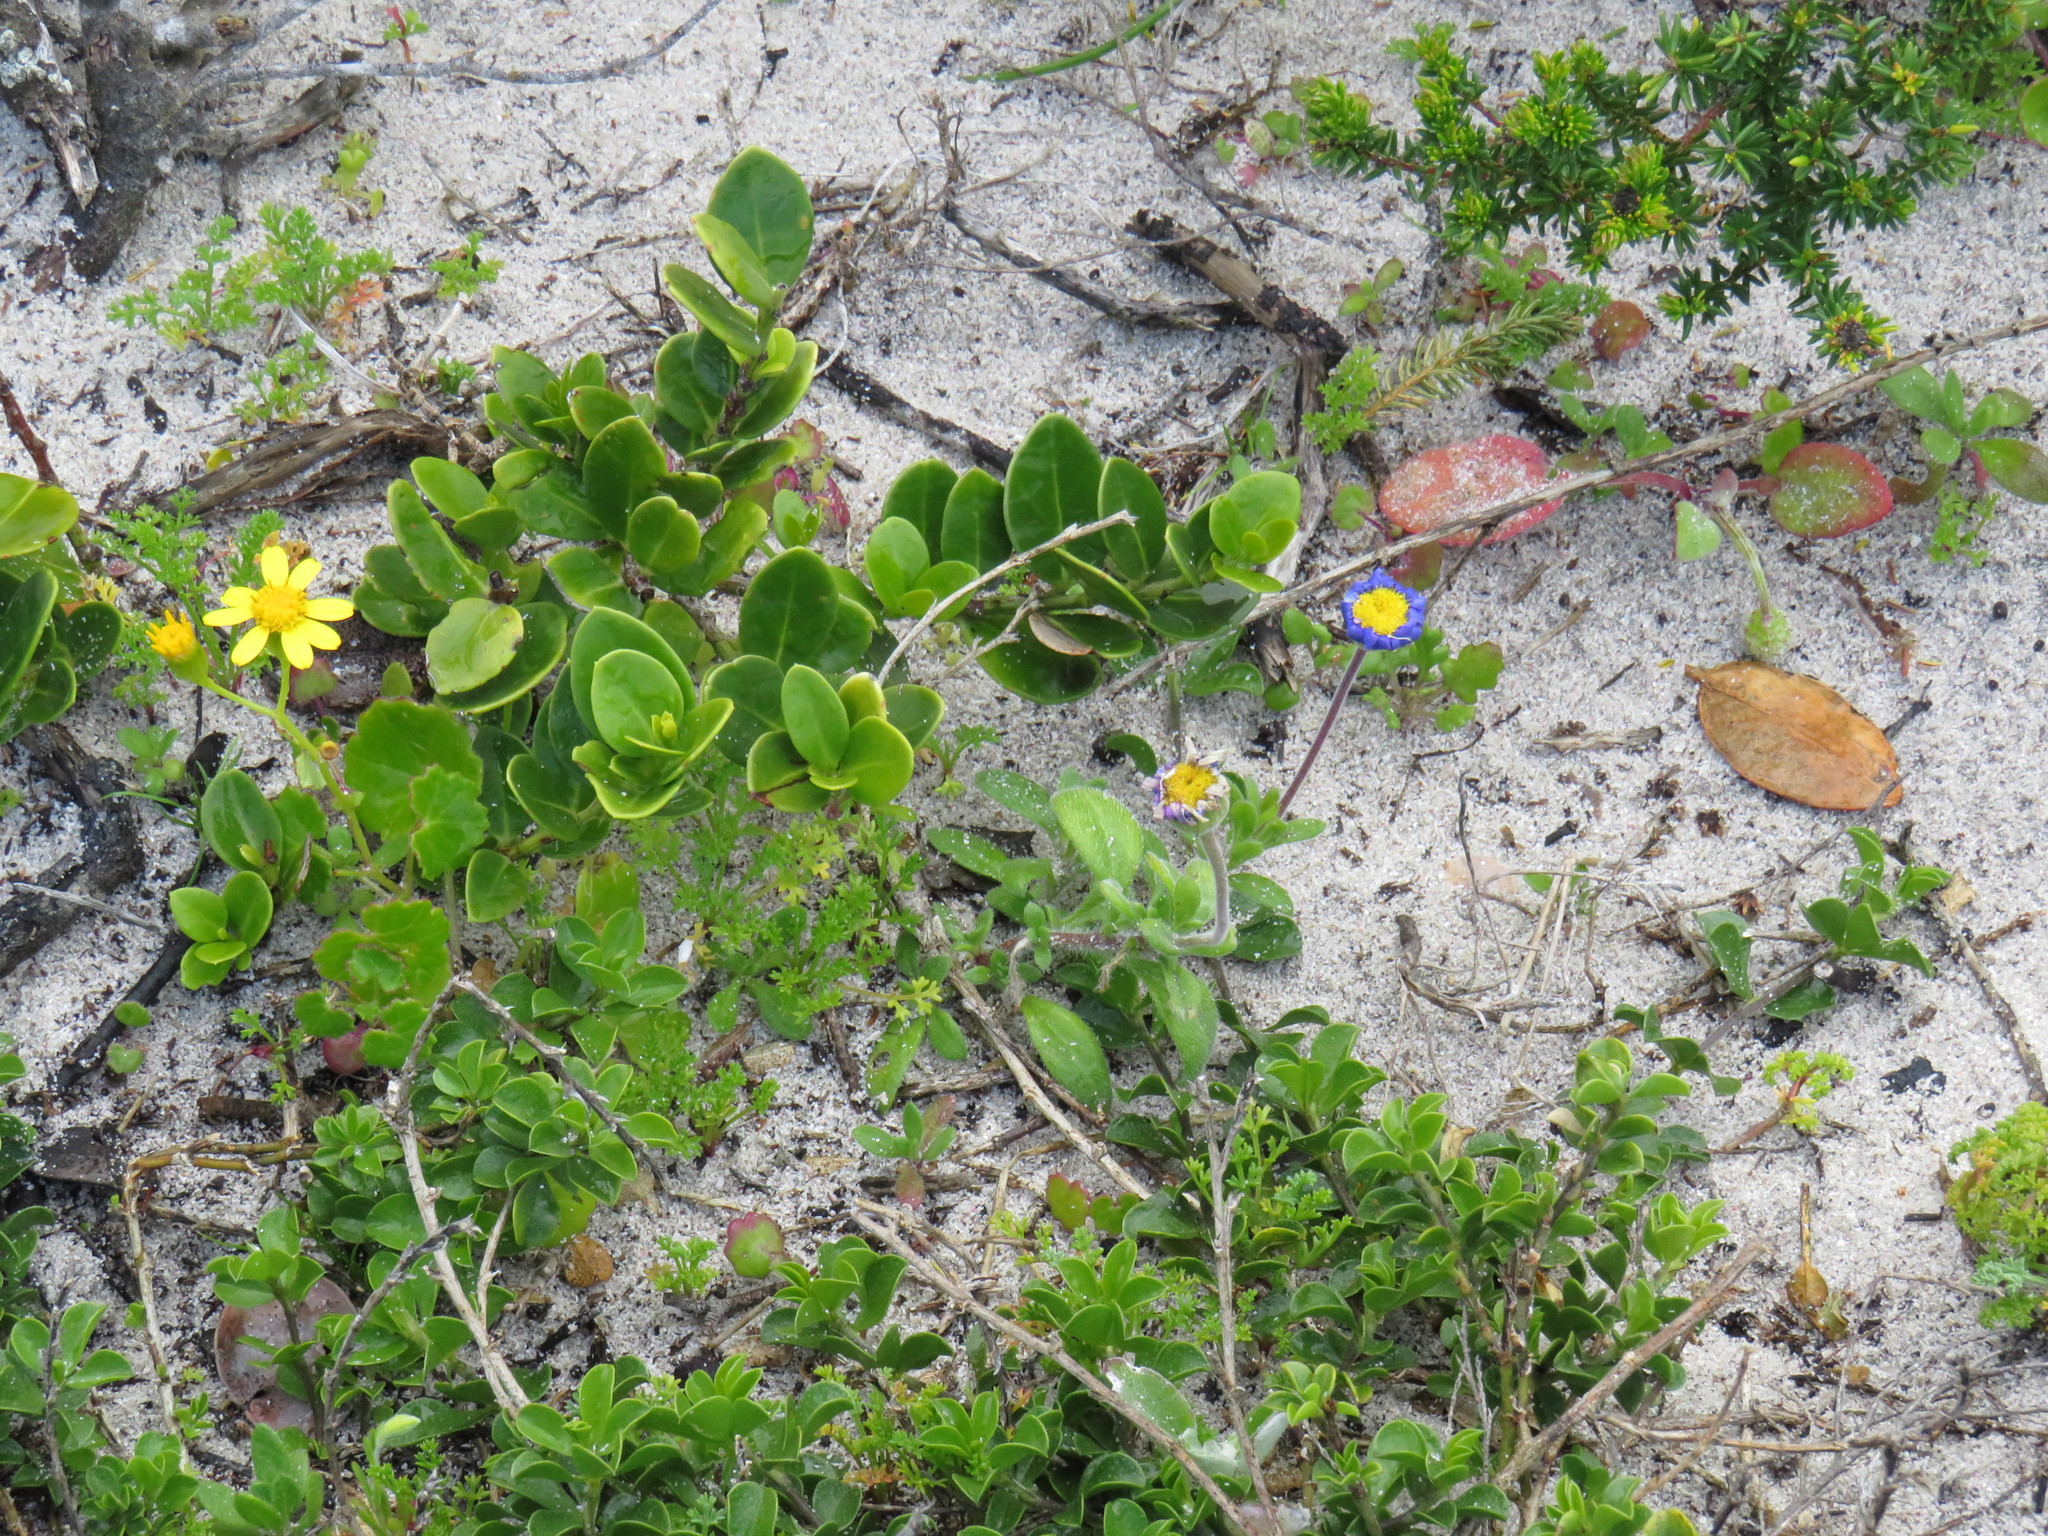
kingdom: Plantae
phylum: Tracheophyta
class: Magnoliopsida
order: Asterales
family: Asteraceae
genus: Felicia
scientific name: Felicia amoena
